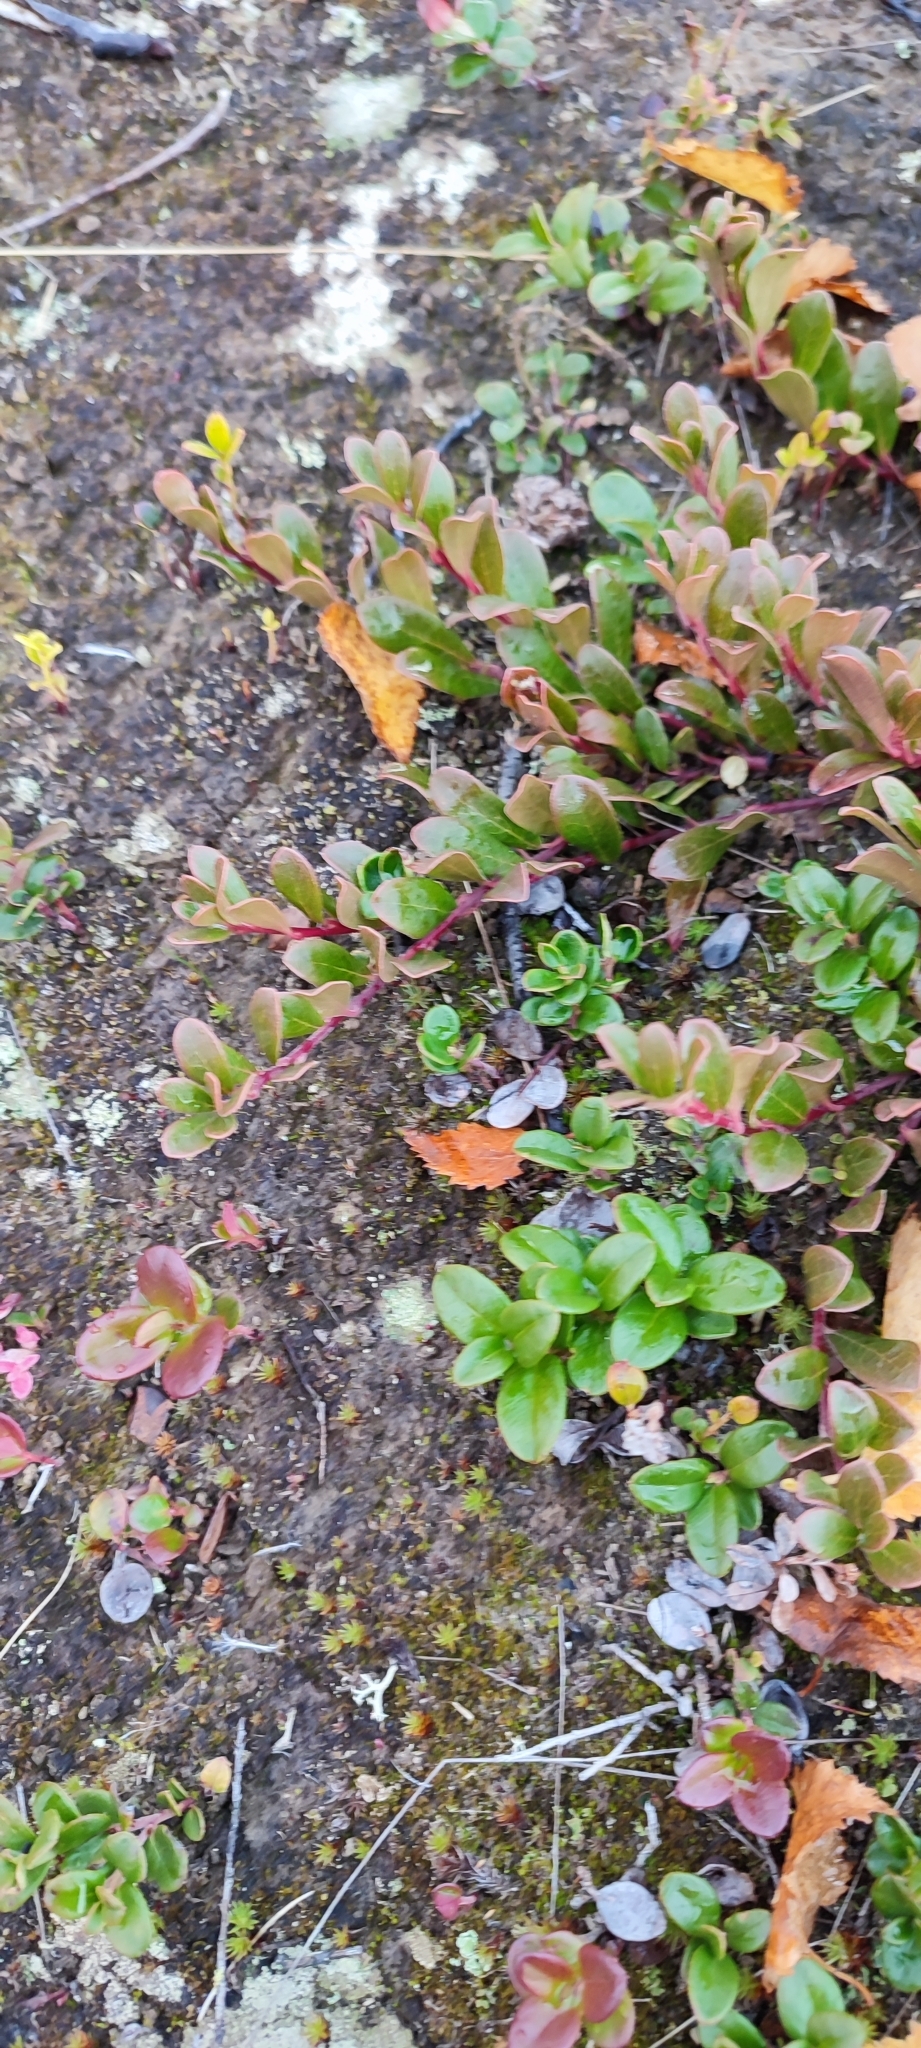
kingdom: Plantae
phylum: Tracheophyta
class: Magnoliopsida
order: Ericales
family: Ericaceae
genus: Arctostaphylos
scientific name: Arctostaphylos uva-ursi
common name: Bearberry
